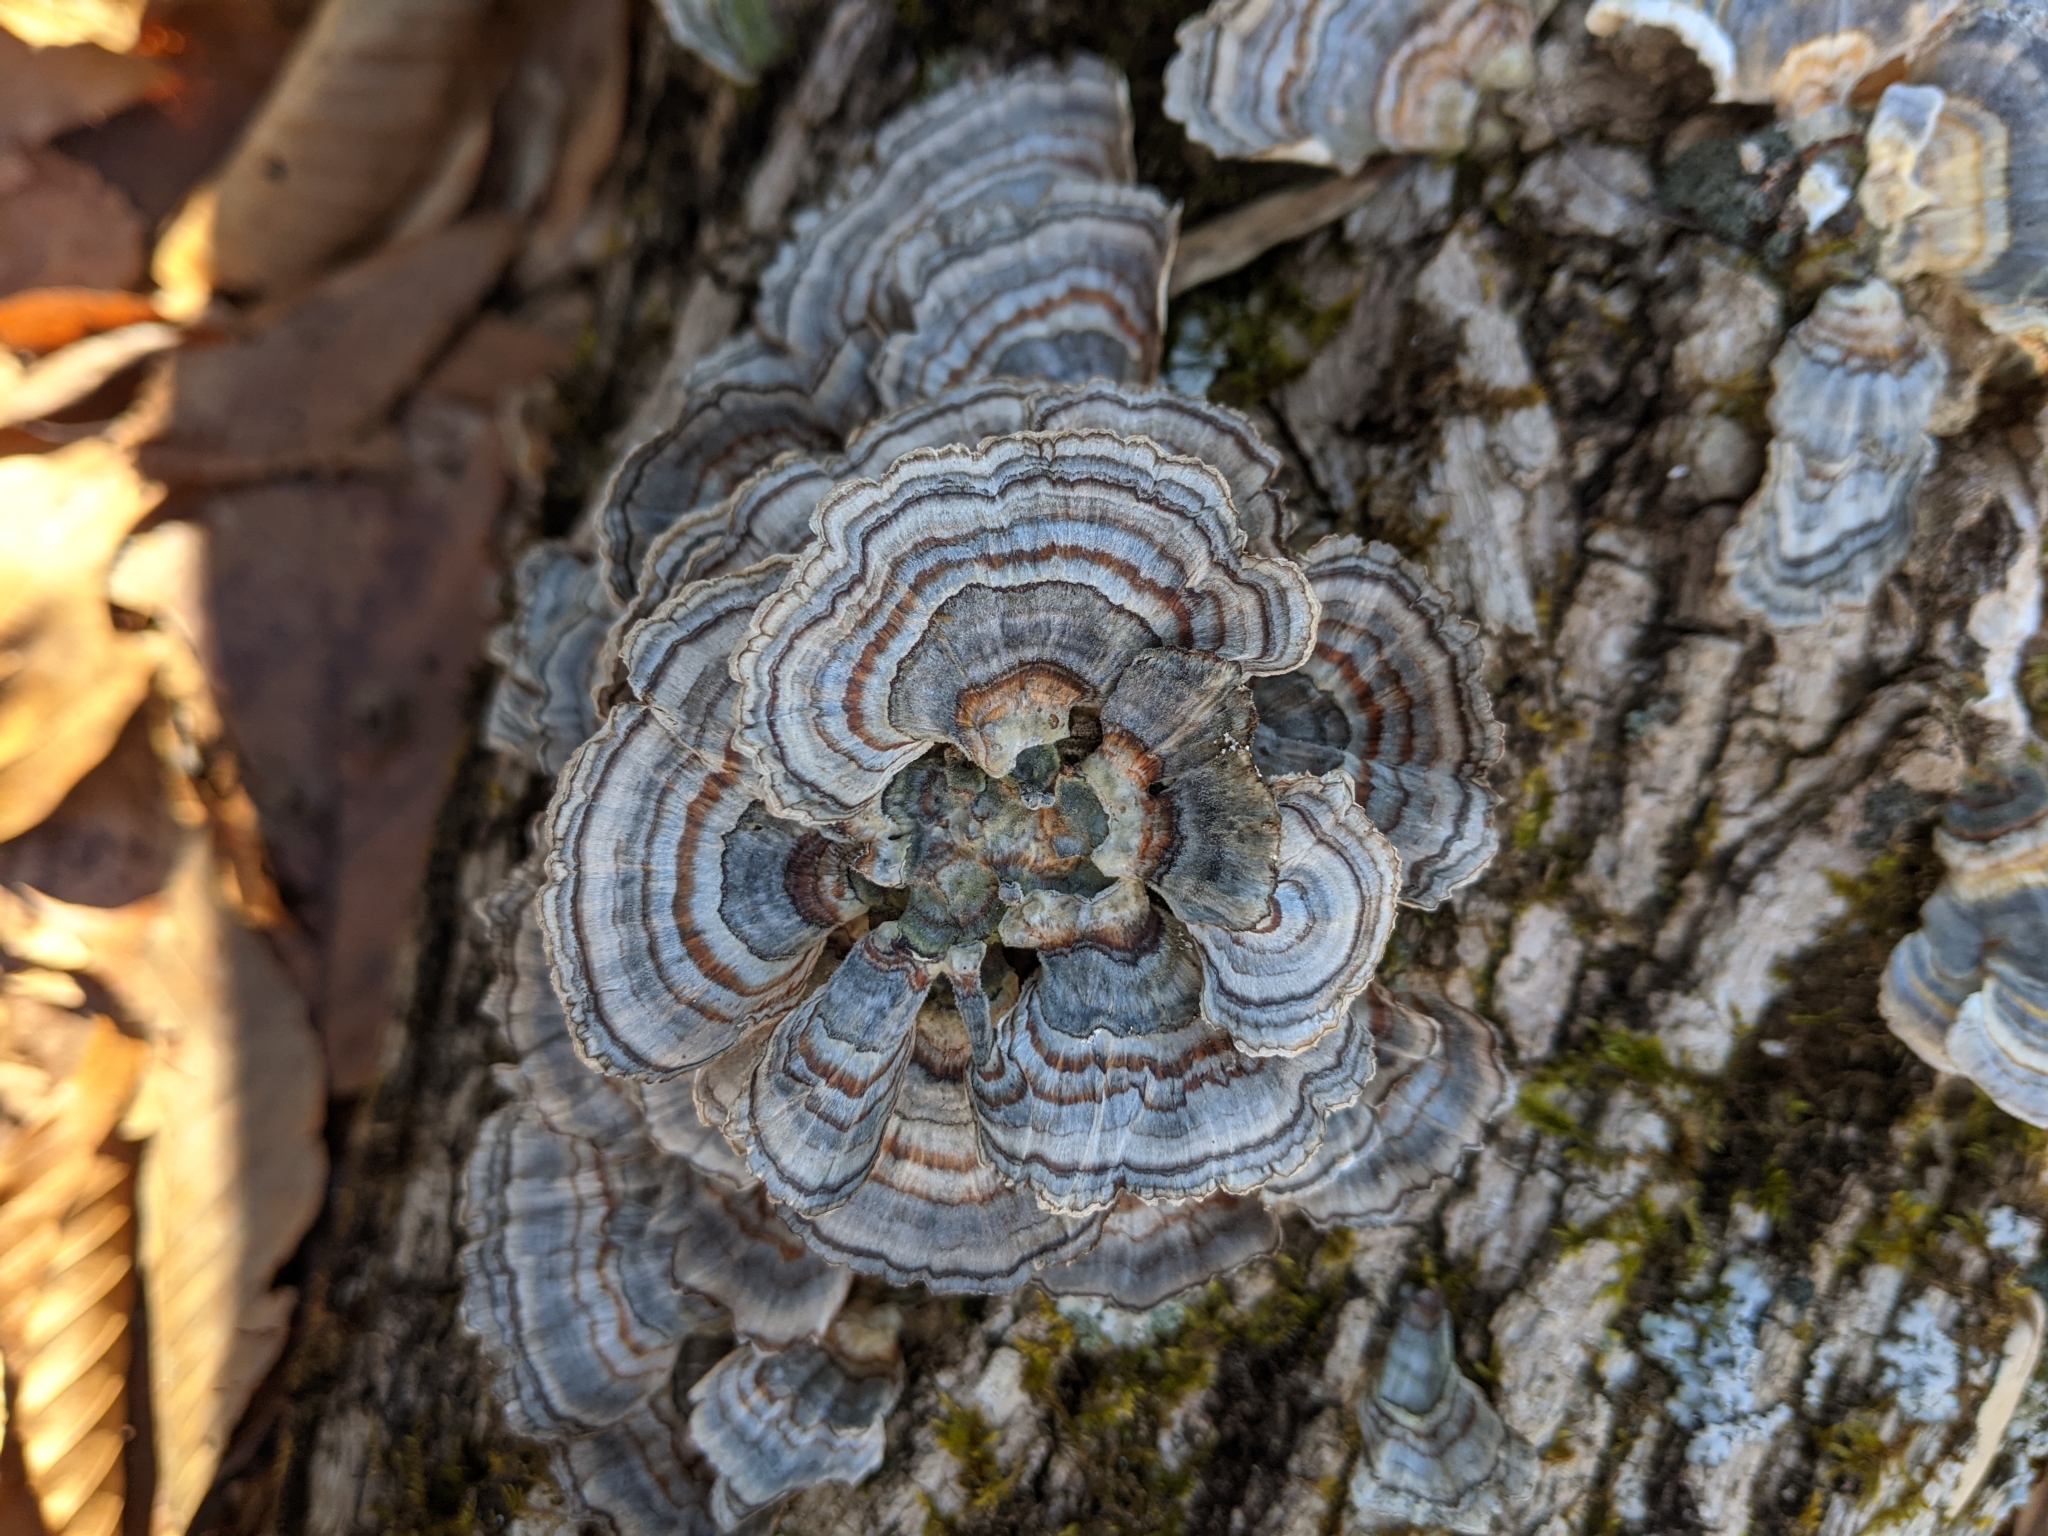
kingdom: Fungi
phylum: Basidiomycota
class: Agaricomycetes
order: Polyporales
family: Polyporaceae
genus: Trametes
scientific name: Trametes versicolor
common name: Turkeytail
